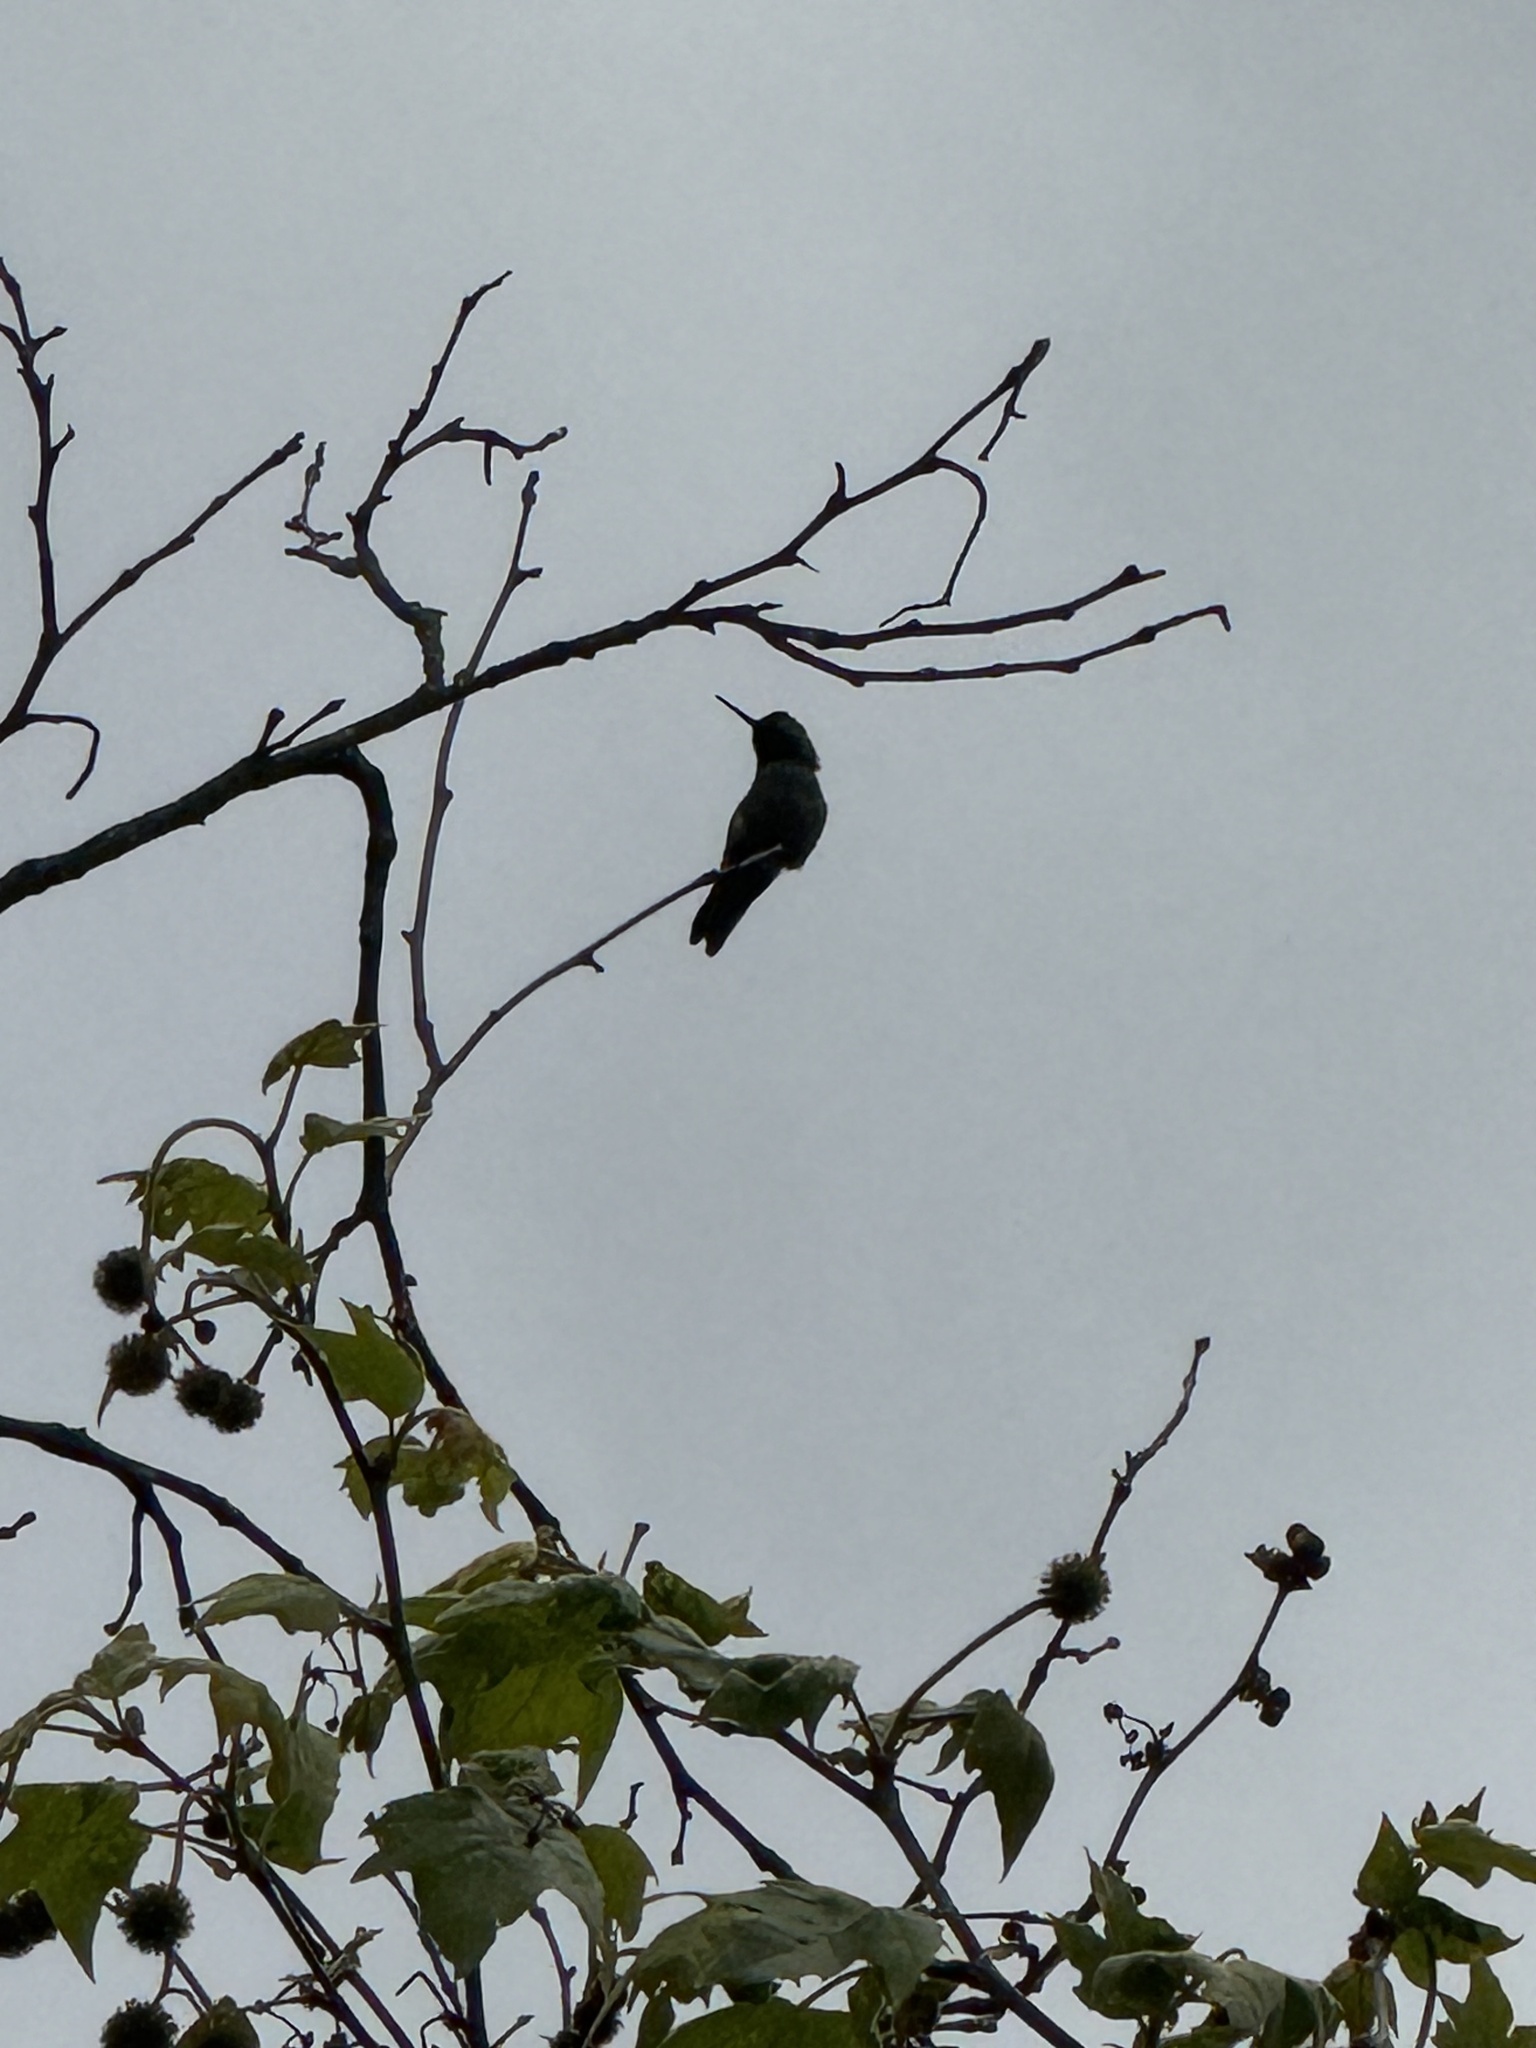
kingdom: Animalia
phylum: Chordata
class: Aves
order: Apodiformes
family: Trochilidae
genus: Calypte
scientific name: Calypte anna
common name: Anna's hummingbird
